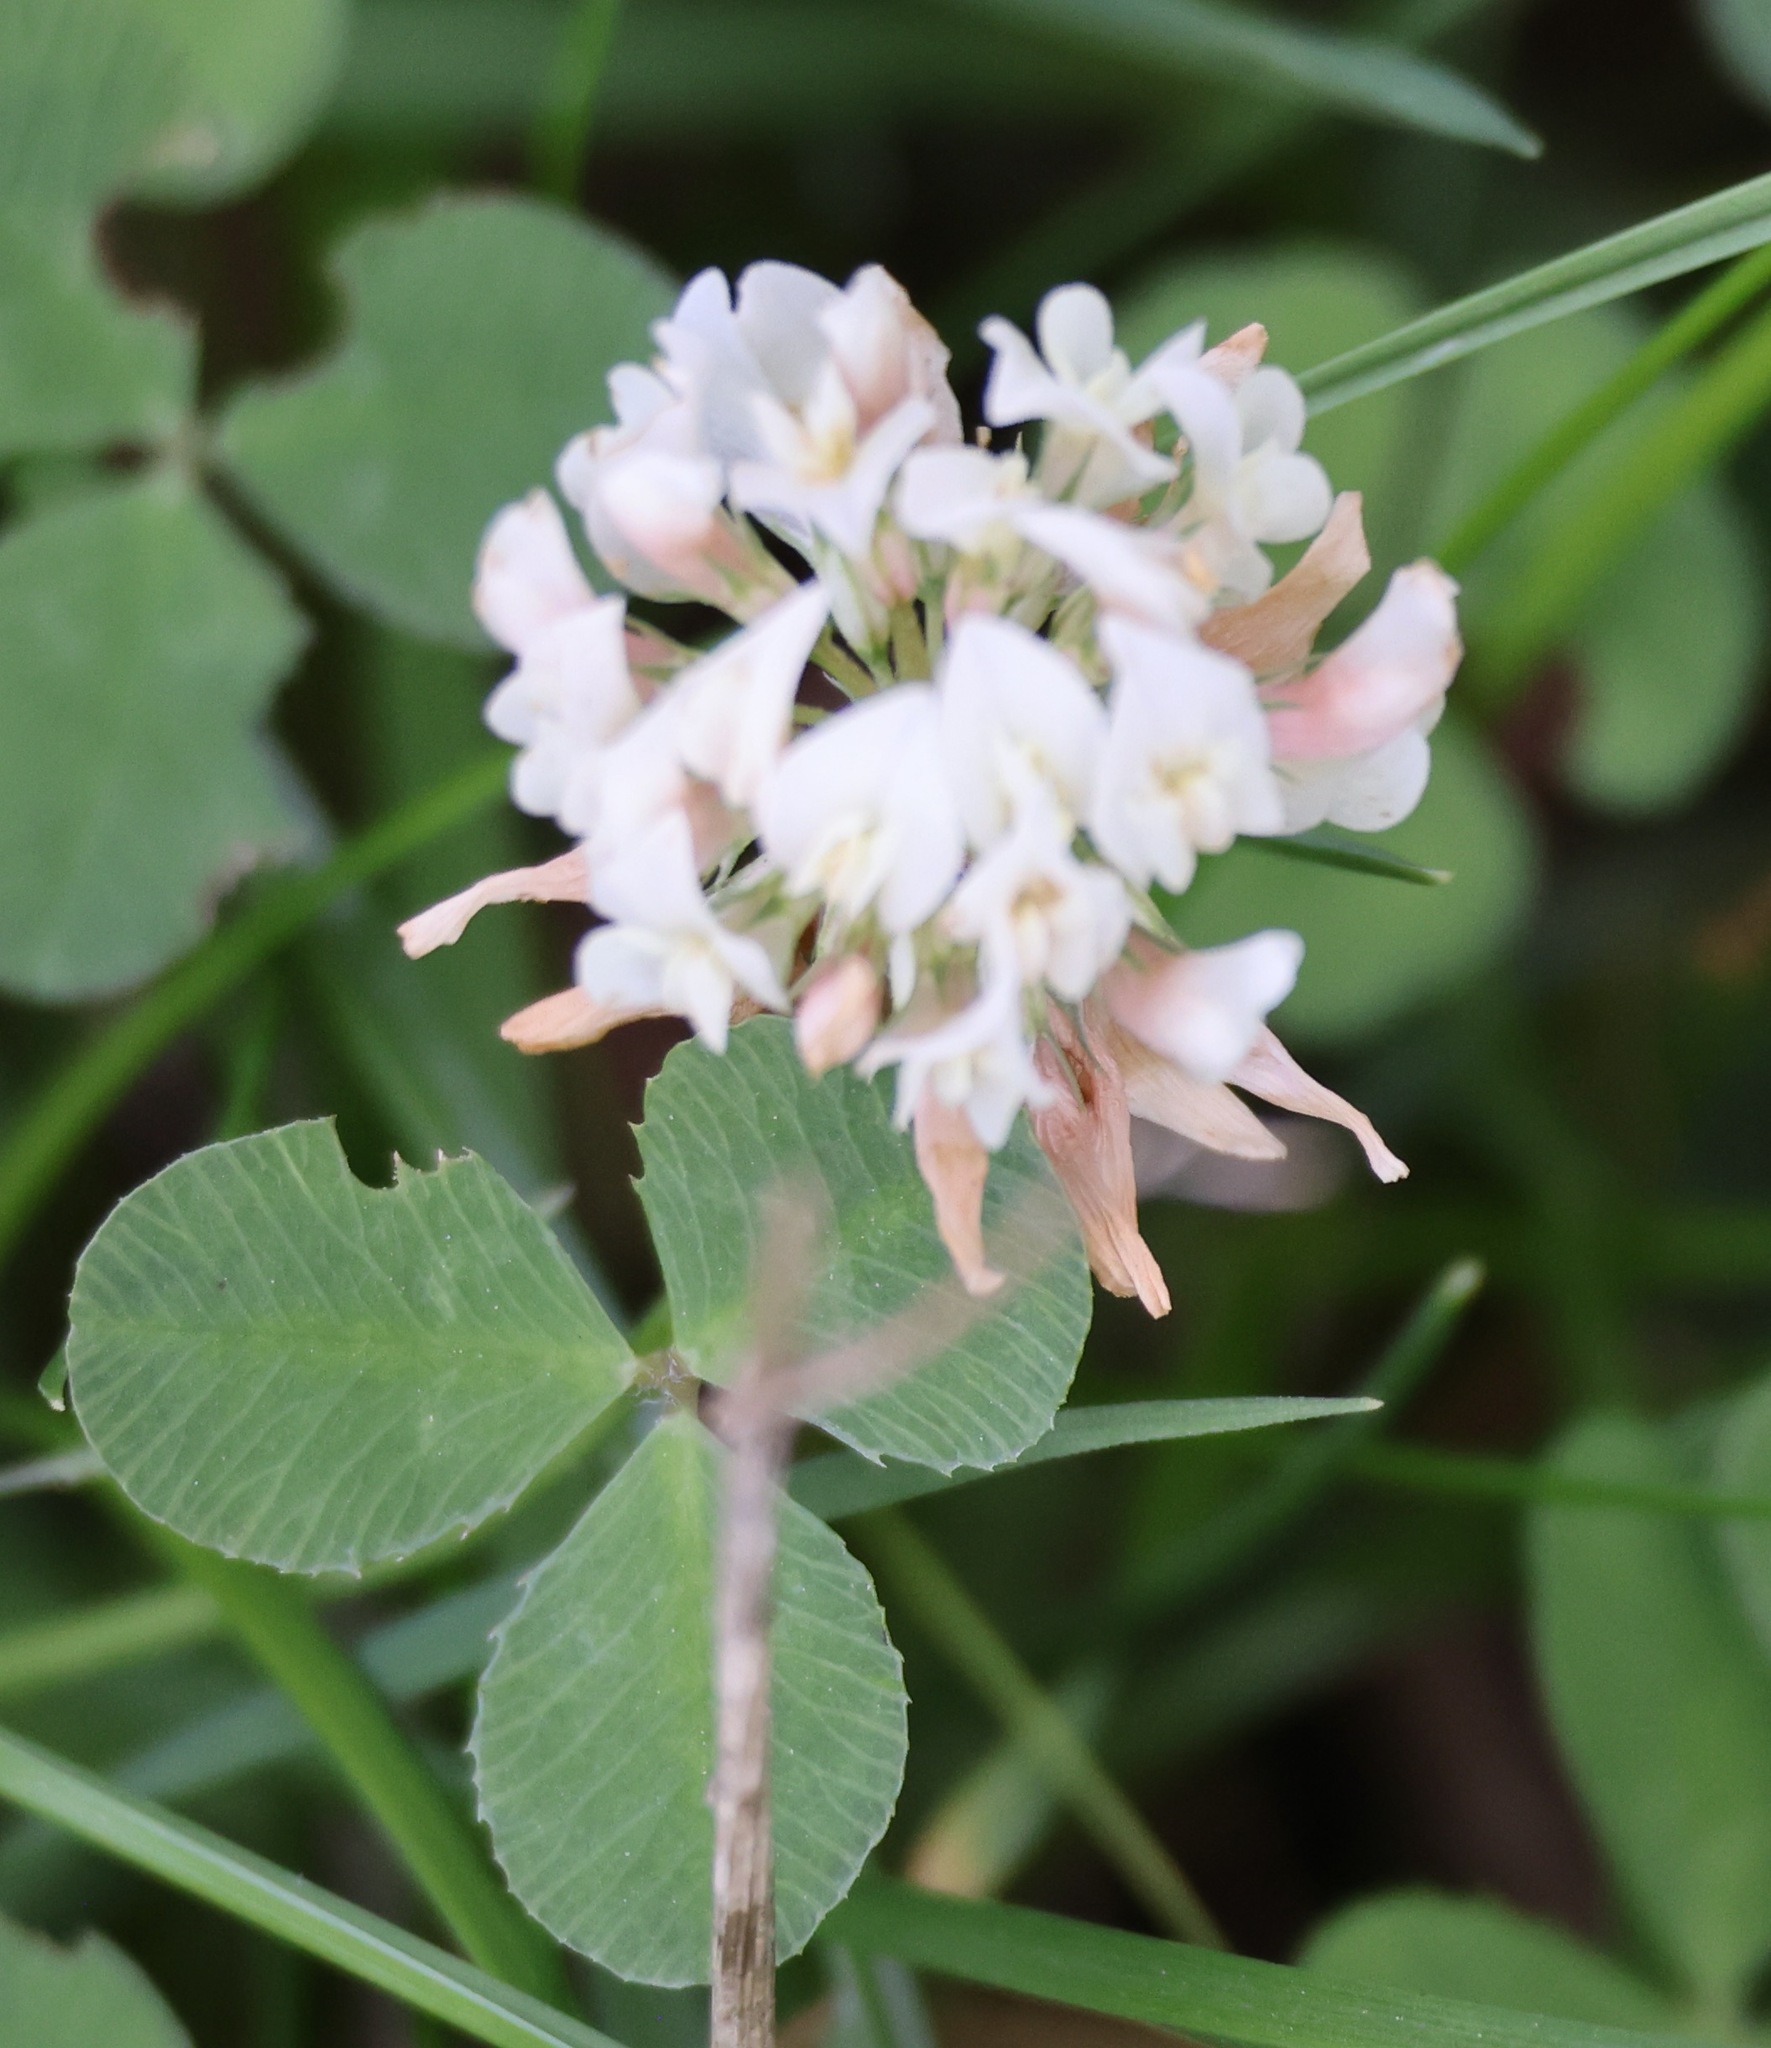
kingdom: Plantae
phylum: Tracheophyta
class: Magnoliopsida
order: Fabales
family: Fabaceae
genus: Trifolium
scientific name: Trifolium repens
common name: White clover
